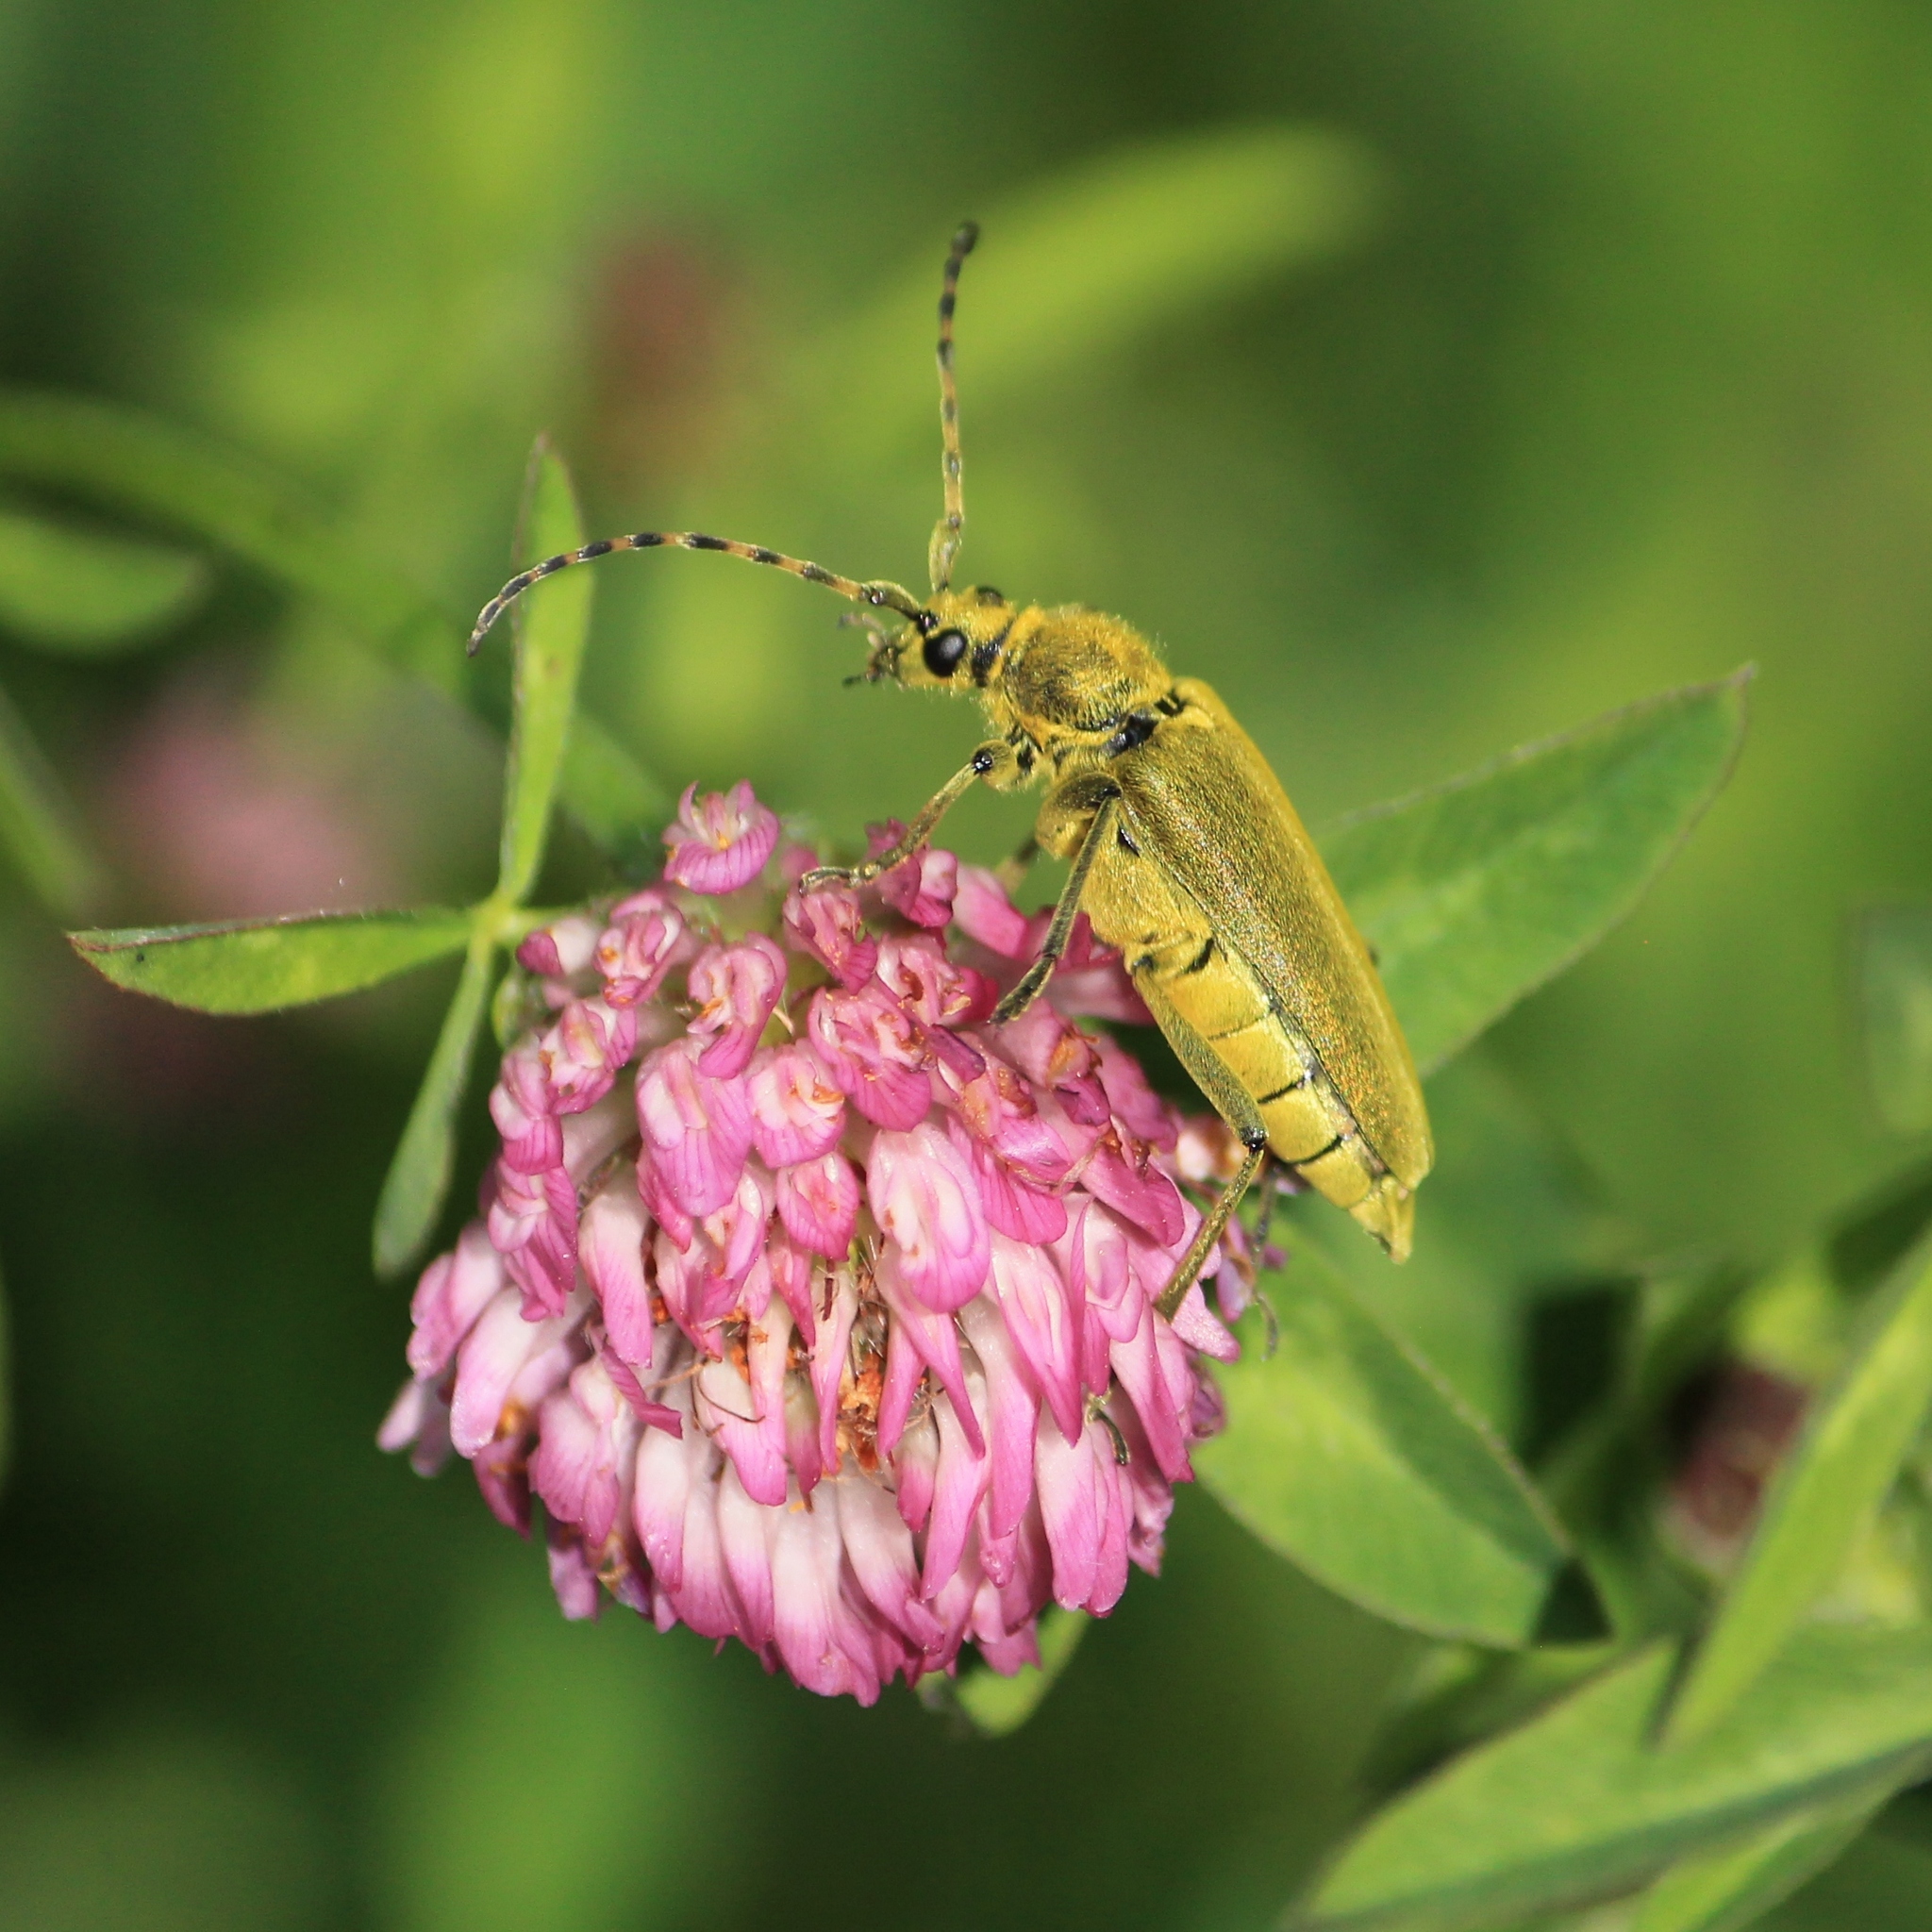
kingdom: Animalia
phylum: Arthropoda
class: Insecta
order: Coleoptera
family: Cerambycidae
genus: Lepturobosca
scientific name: Lepturobosca virens
